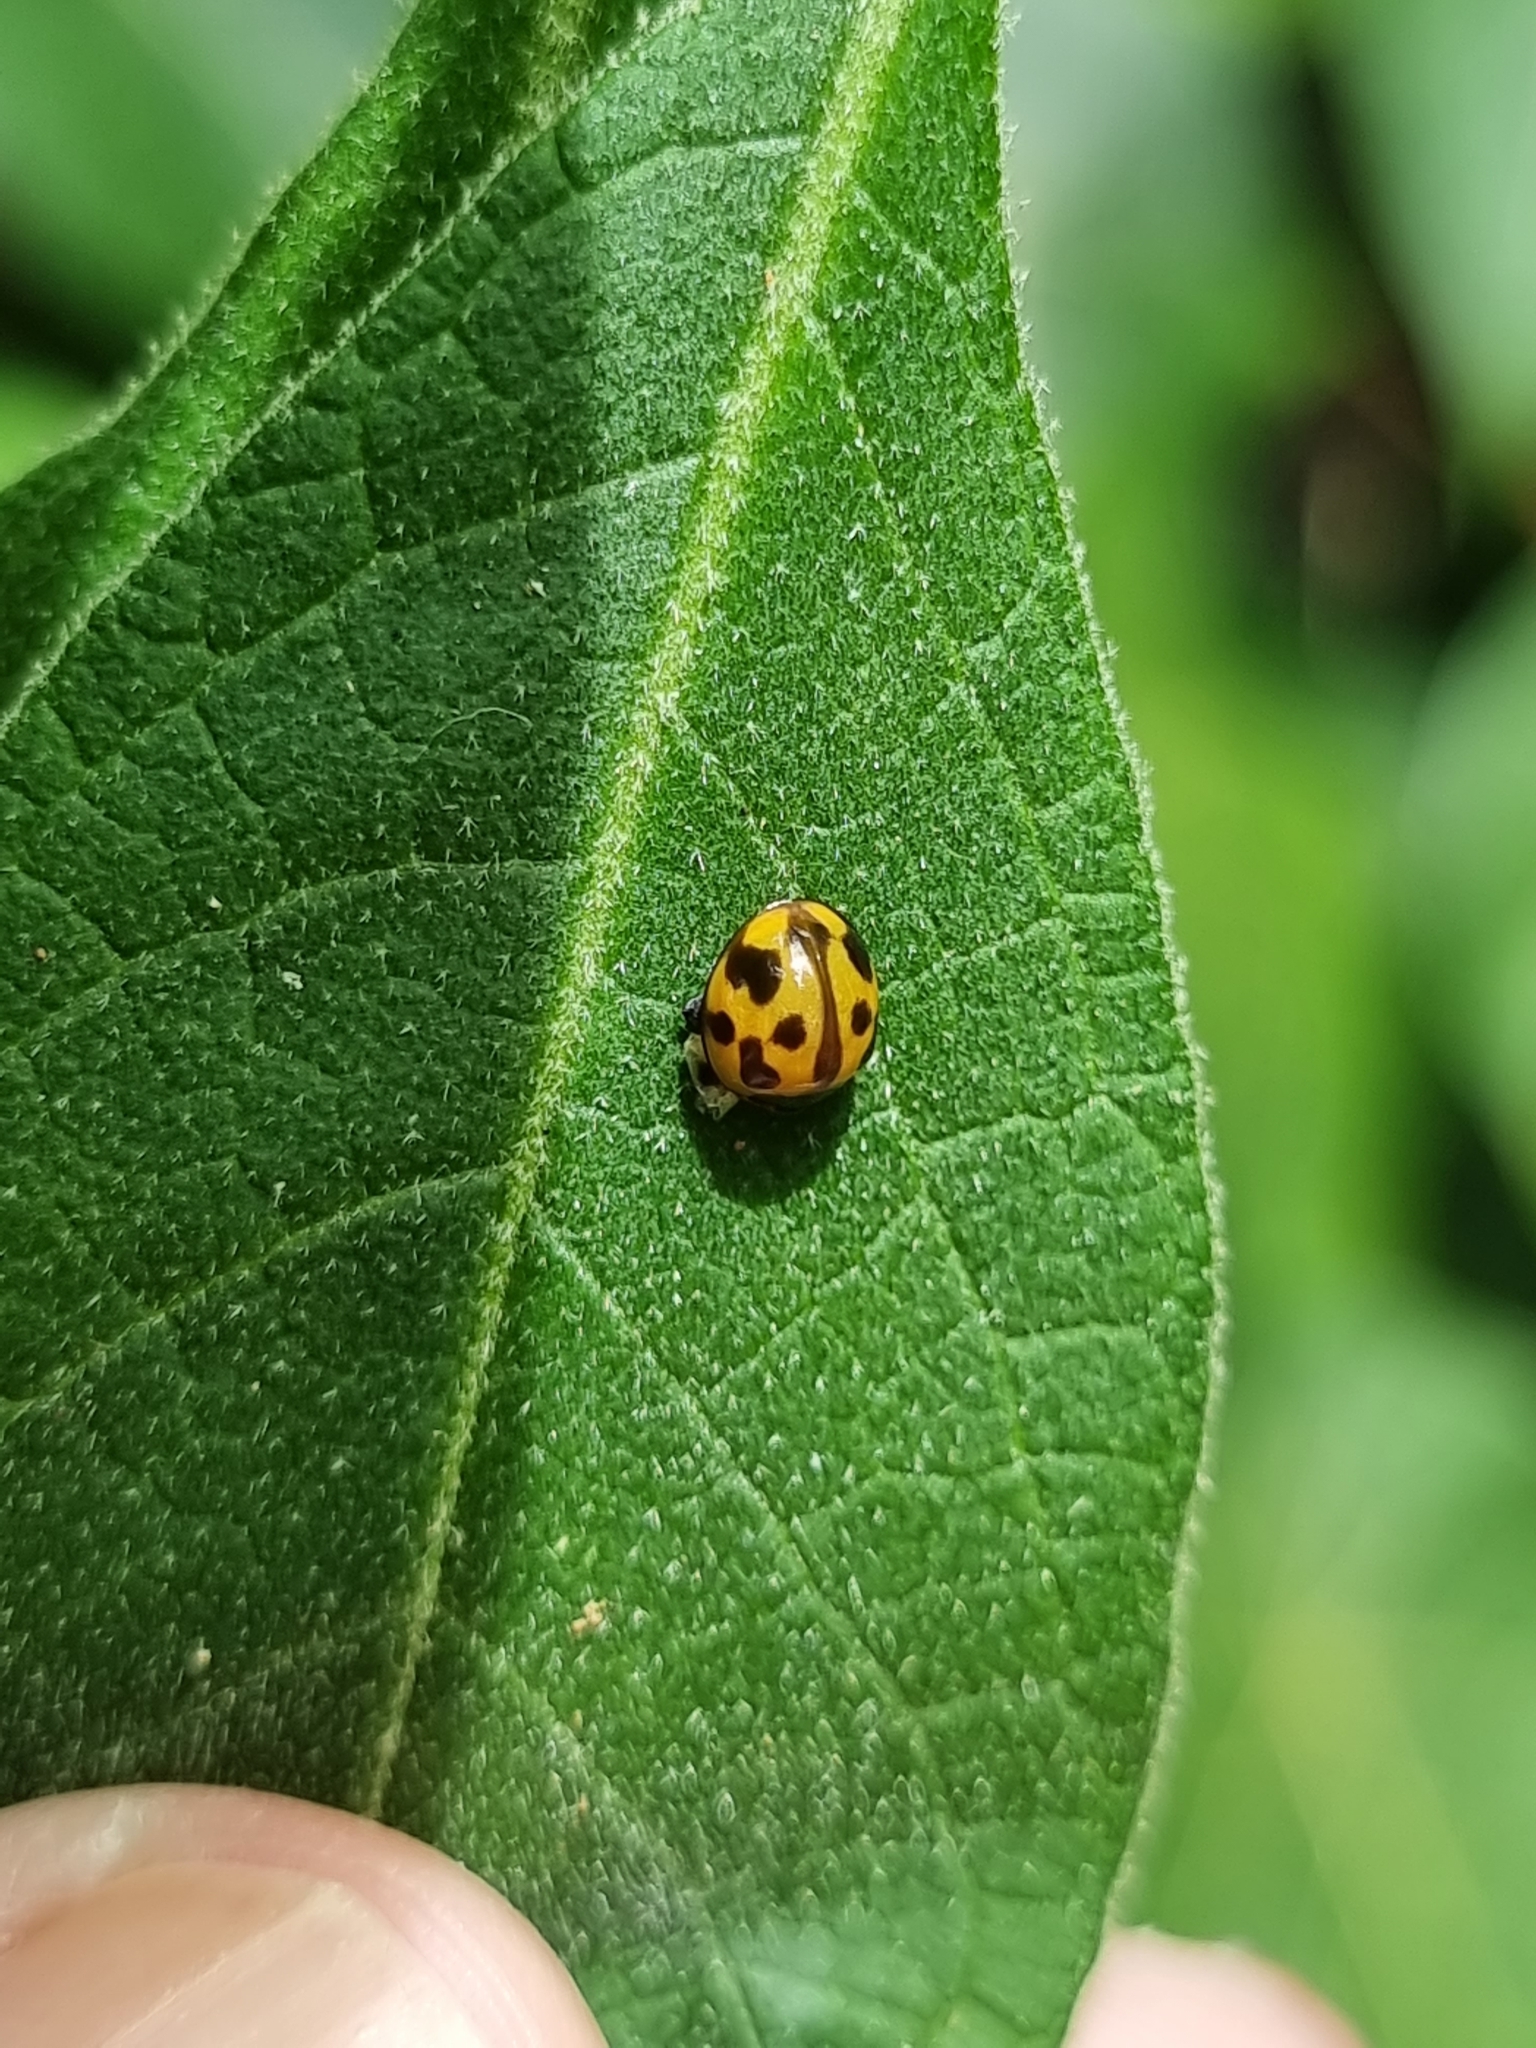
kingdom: Animalia
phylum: Arthropoda
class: Insecta
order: Coleoptera
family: Coccinellidae
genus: Coelophora
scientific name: Coelophora inaequalis
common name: Common australian lady beetle
